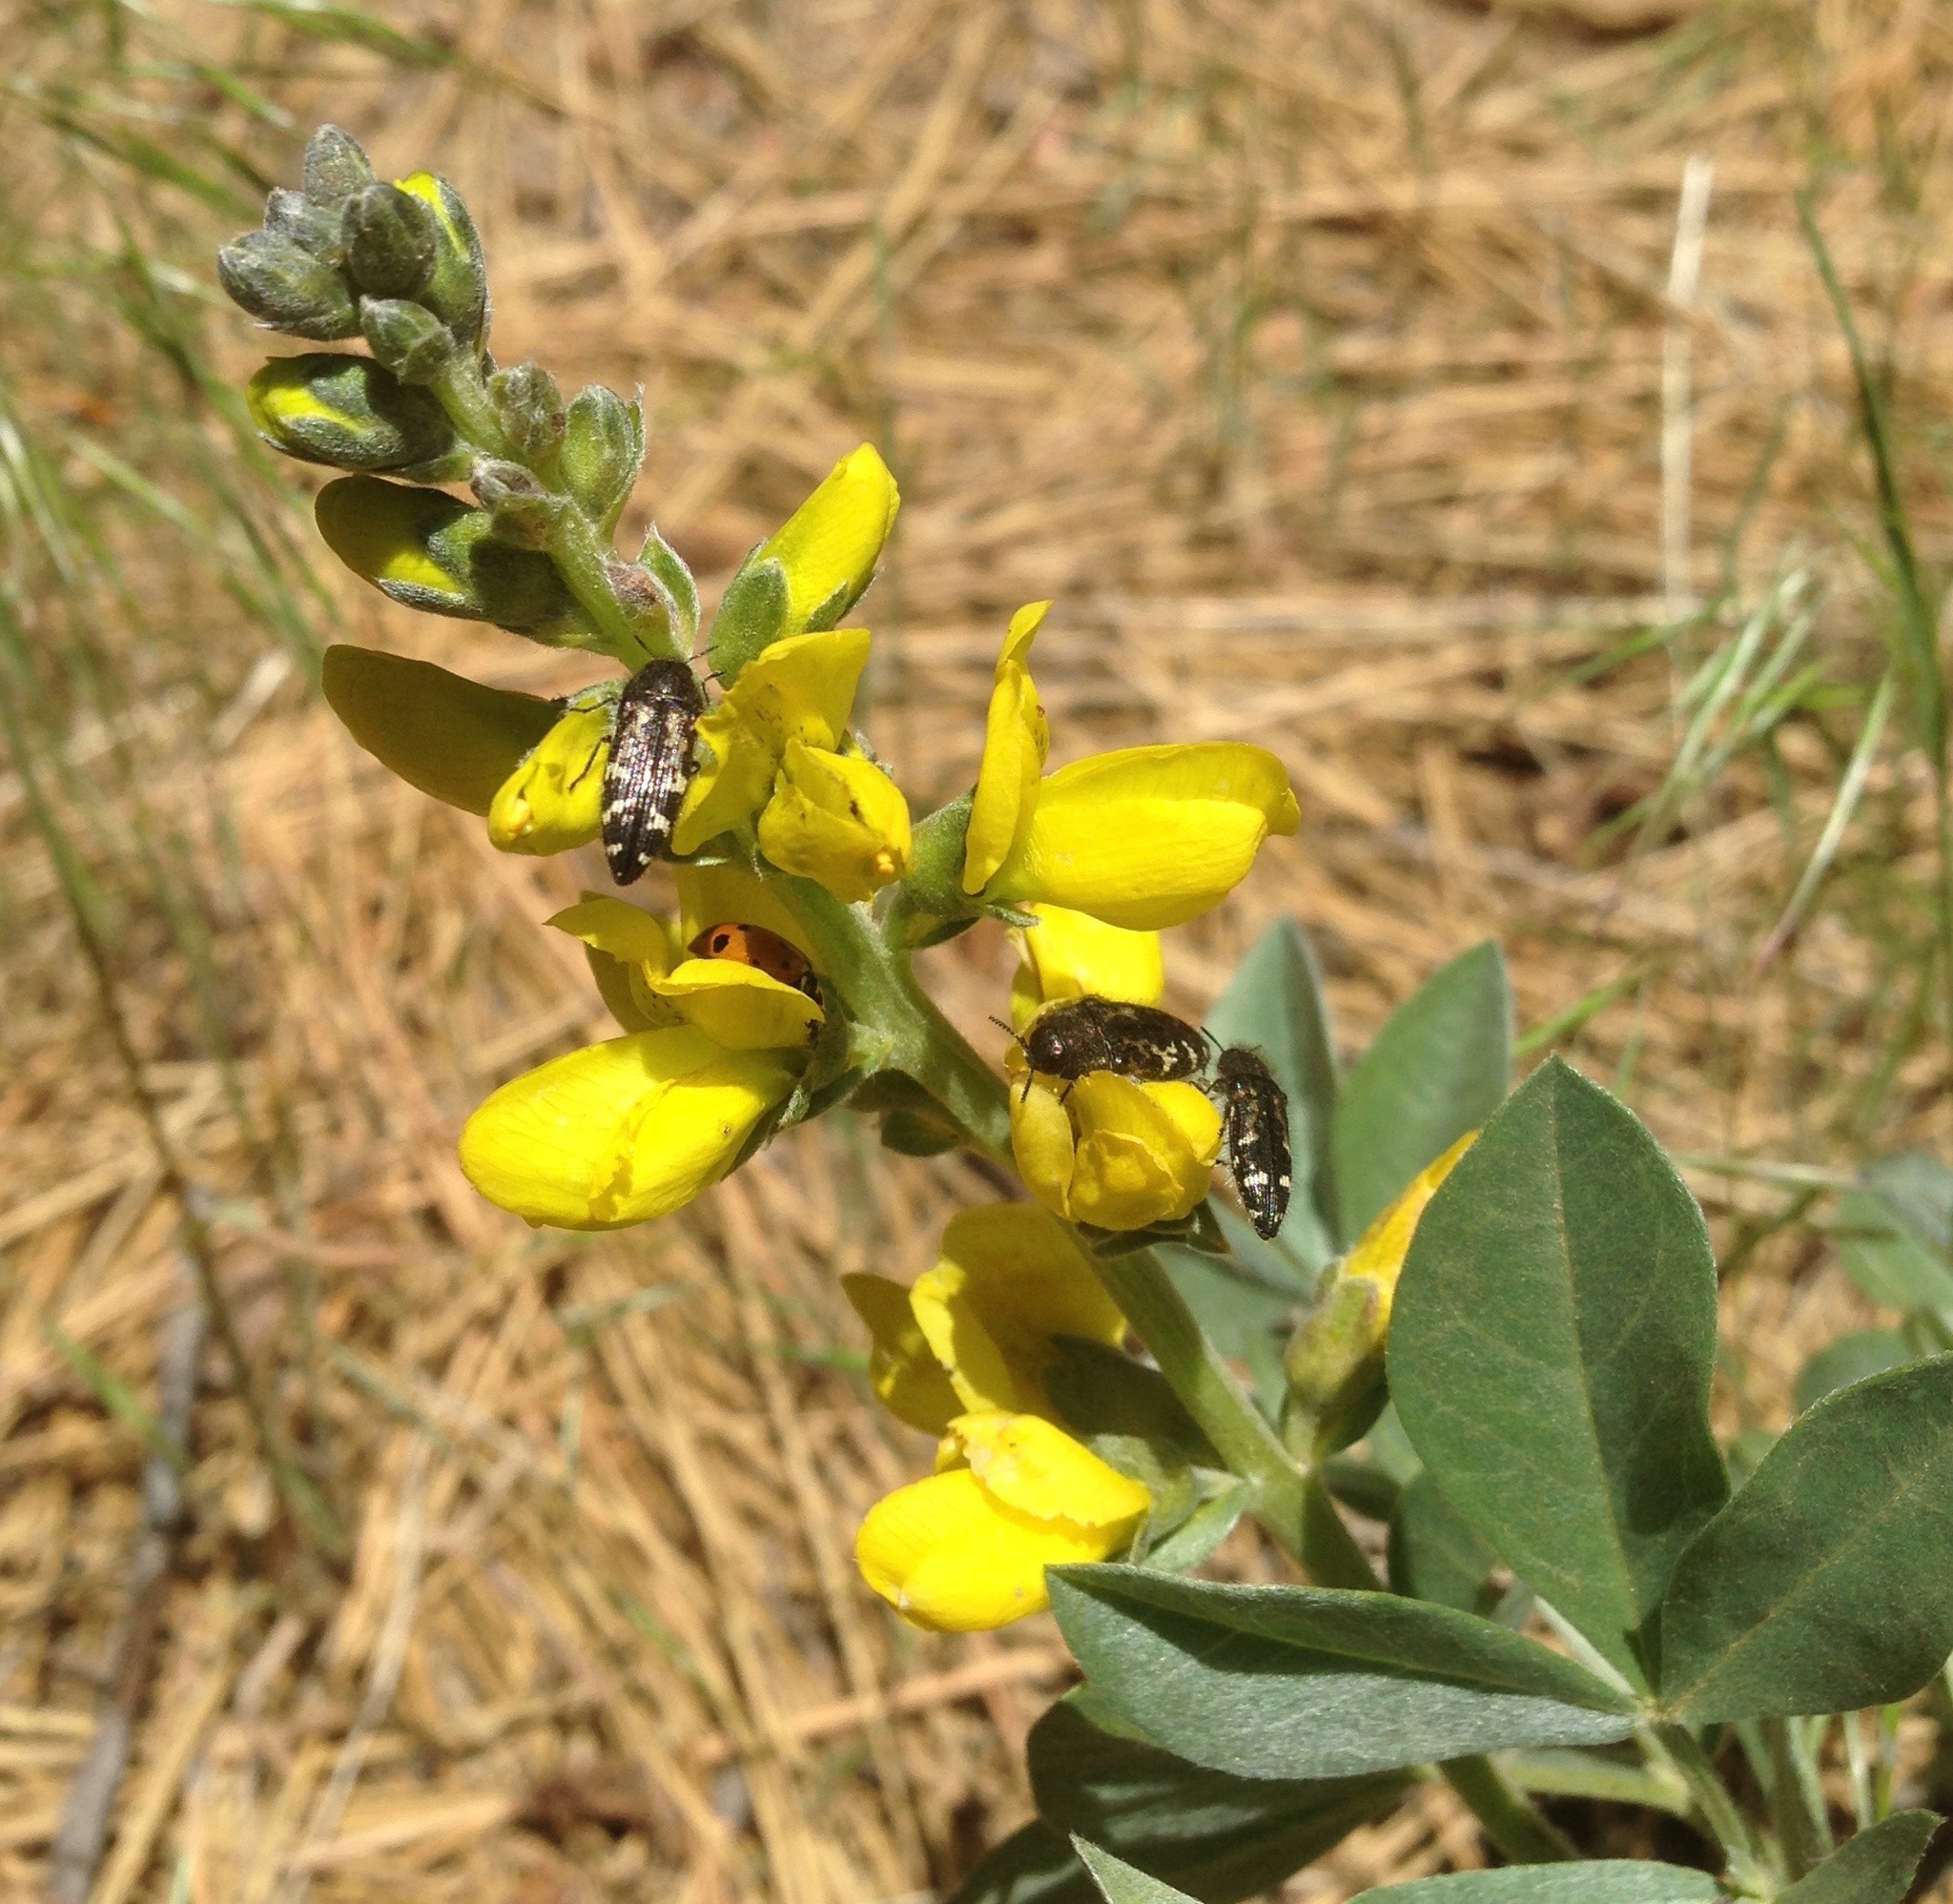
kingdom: Plantae
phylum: Tracheophyta
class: Magnoliopsida
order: Fabales
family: Fabaceae
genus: Thermopsis
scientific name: Thermopsis californica
